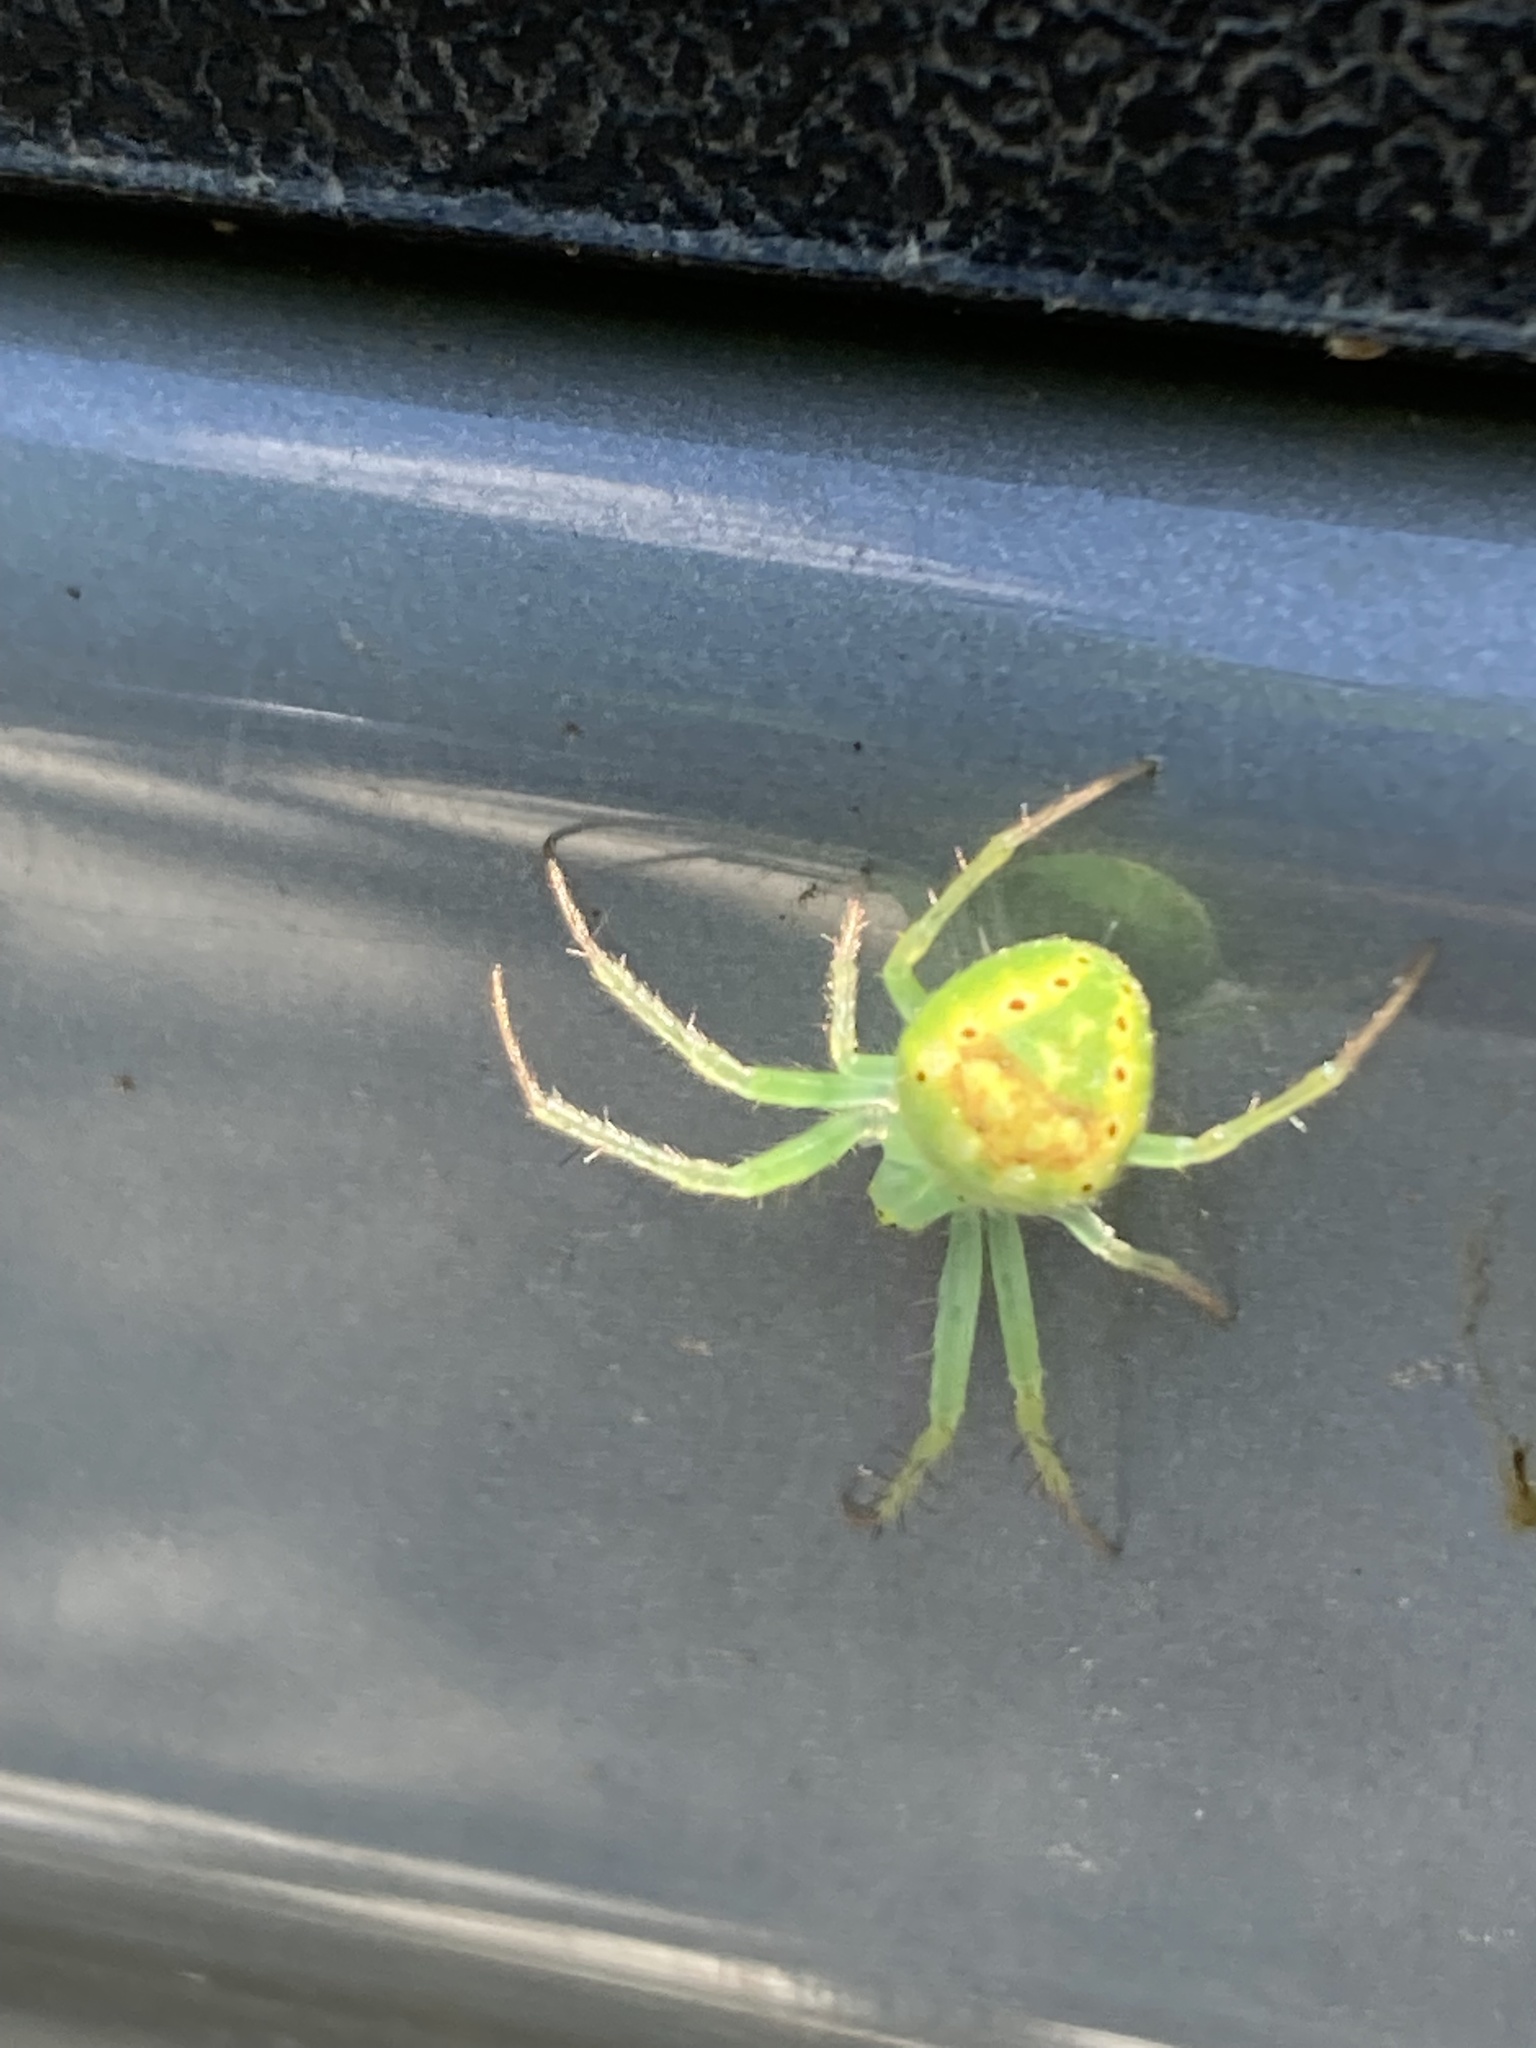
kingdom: Animalia
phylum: Arthropoda
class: Arachnida
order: Araneae
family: Araneidae
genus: Araneus
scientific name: Araneus cingulatus
